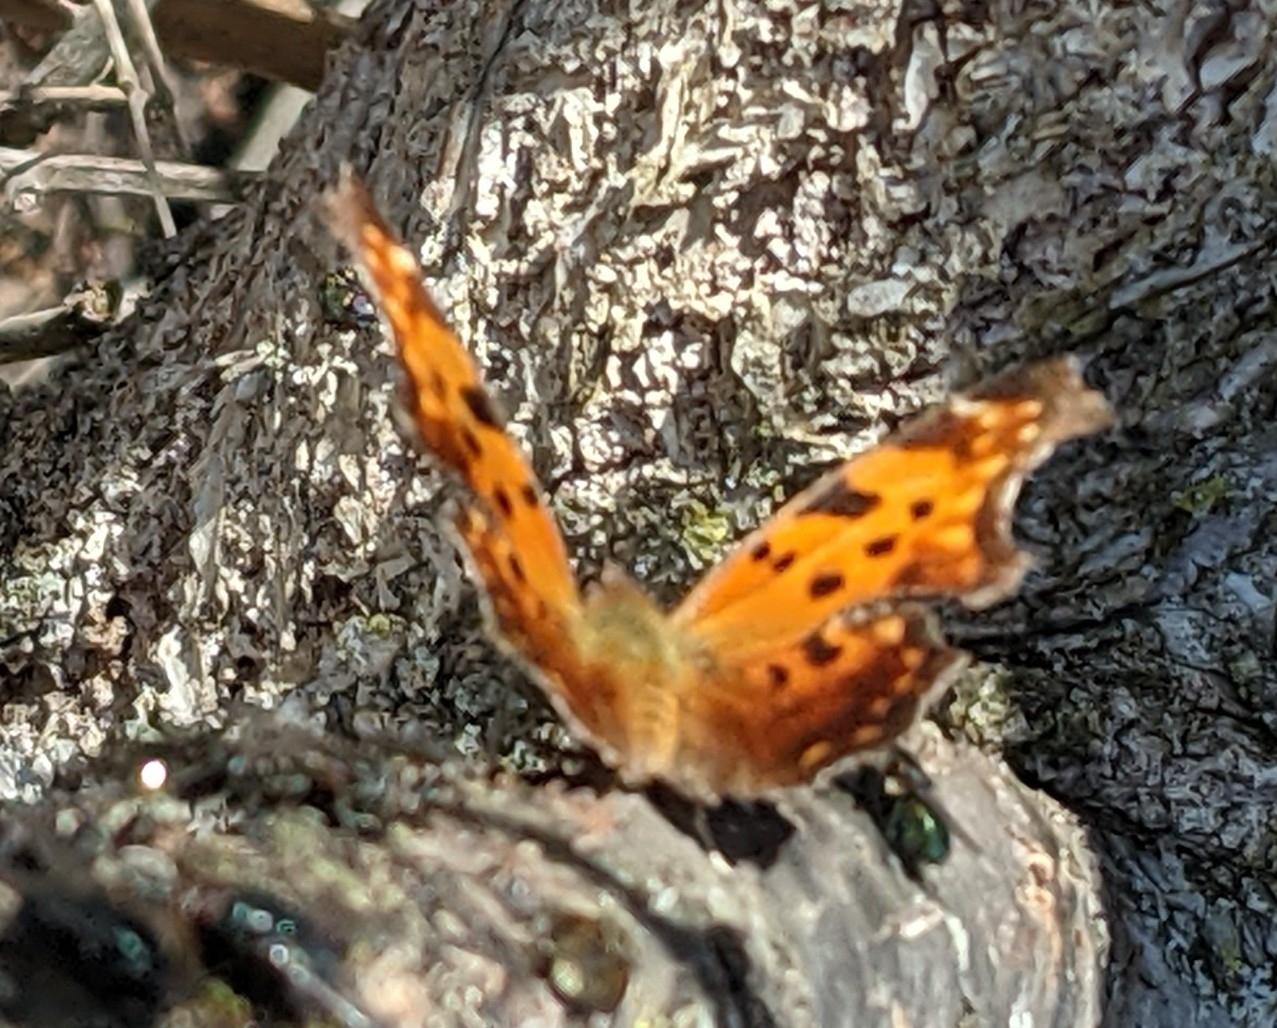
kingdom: Animalia
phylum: Arthropoda
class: Insecta
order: Lepidoptera
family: Nymphalidae
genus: Polygonia
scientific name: Polygonia comma
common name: Eastern comma
